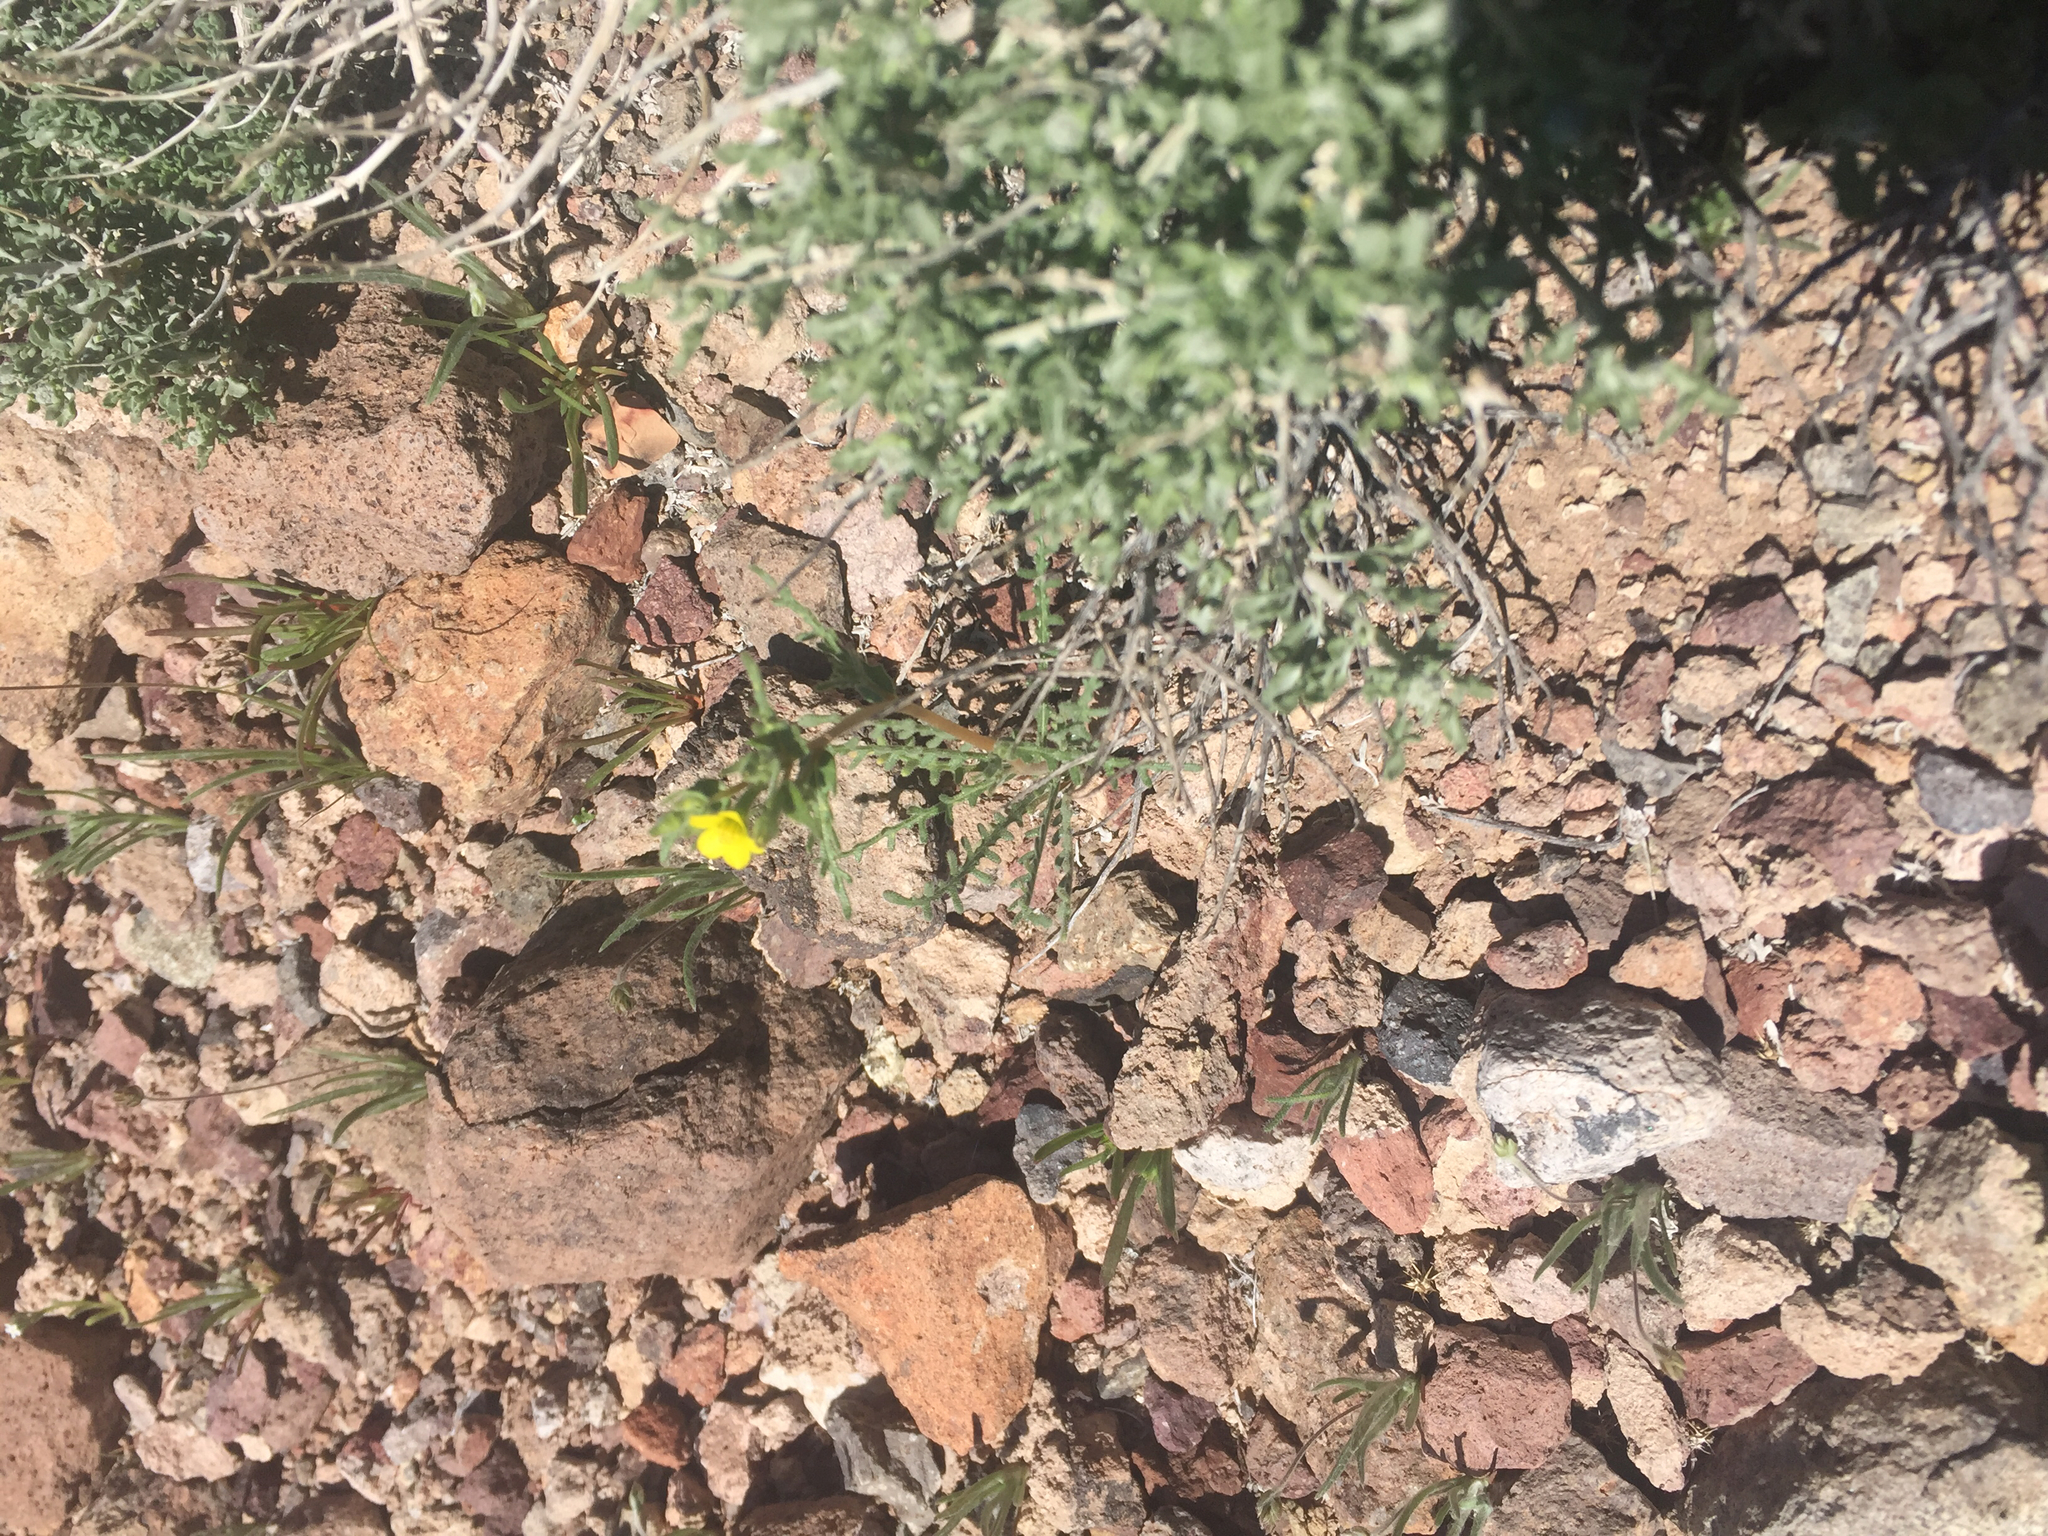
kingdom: Plantae
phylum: Tracheophyta
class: Magnoliopsida
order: Cornales
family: Loasaceae
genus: Mentzelia
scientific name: Mentzelia albicaulis
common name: White-stem blazingstar
